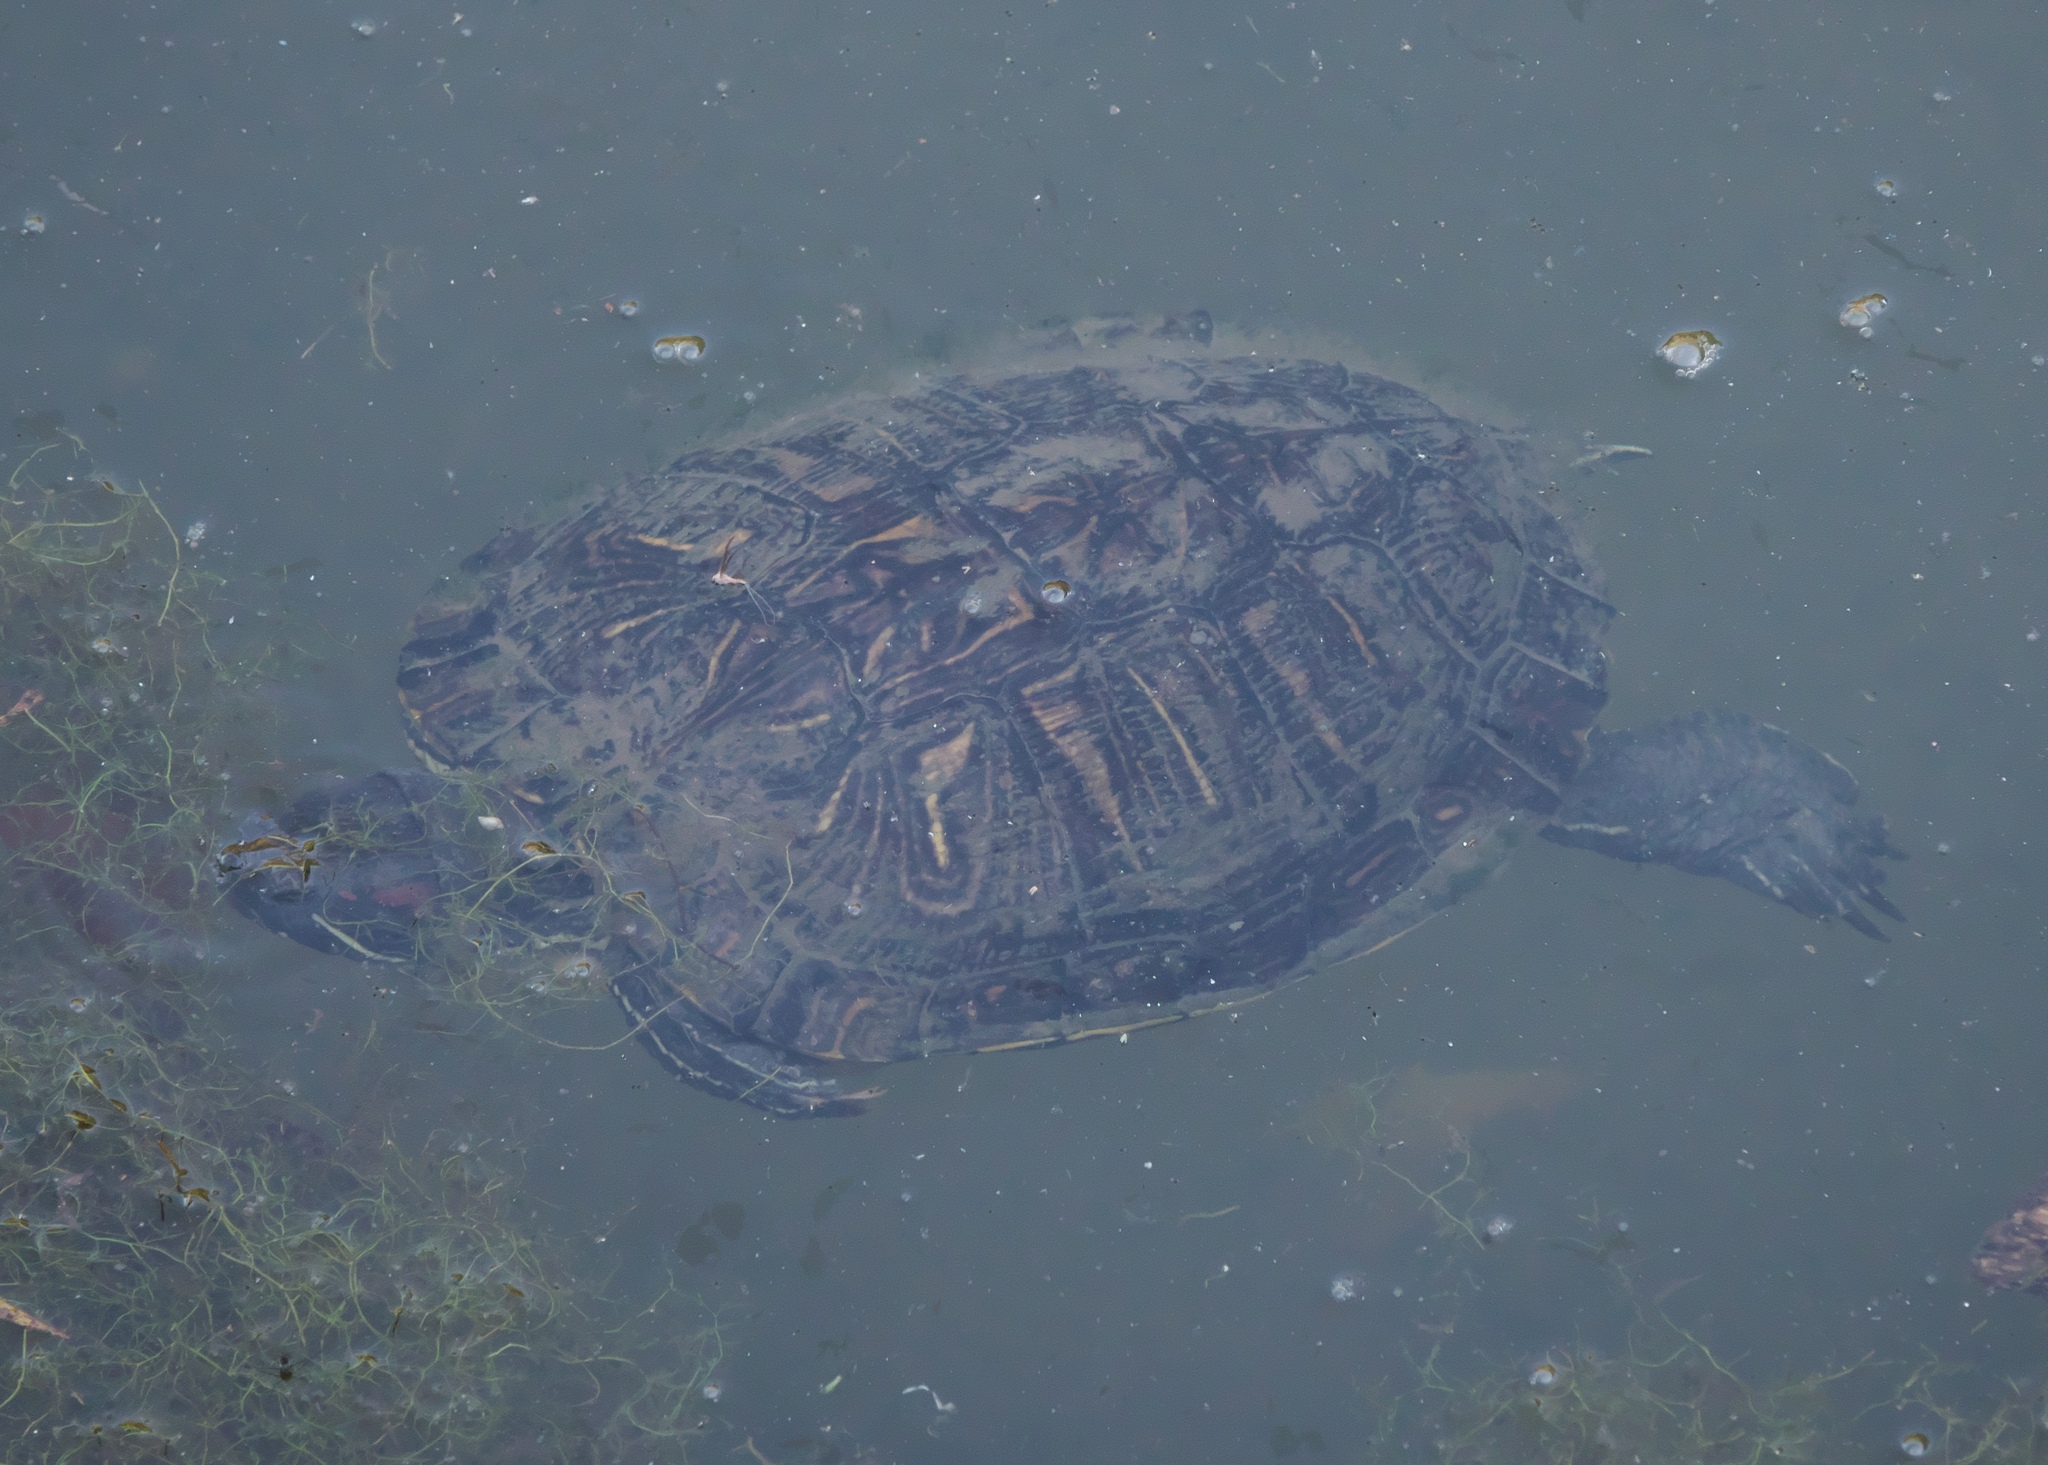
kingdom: Animalia
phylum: Chordata
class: Testudines
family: Emydidae
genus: Trachemys
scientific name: Trachemys scripta
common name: Slider
